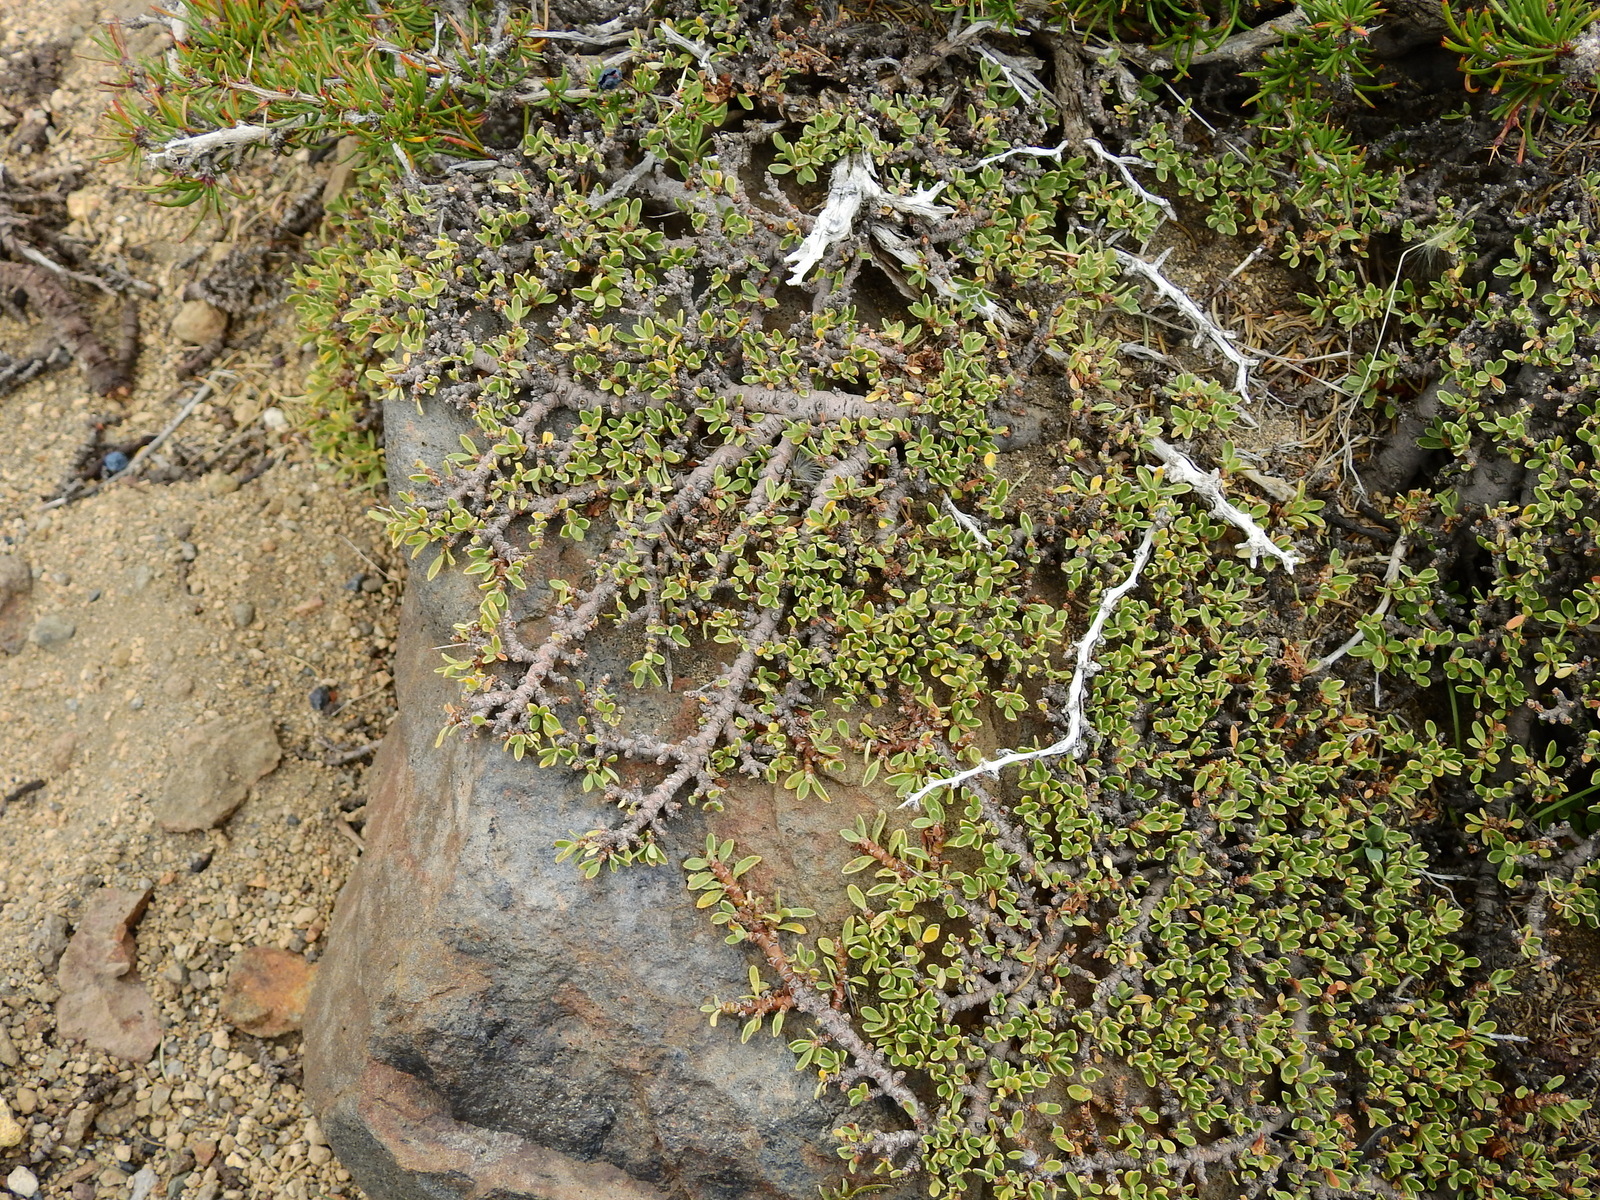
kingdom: Plantae
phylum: Tracheophyta
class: Magnoliopsida
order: Rosales
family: Rhamnaceae
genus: Discaria
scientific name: Discaria nana
